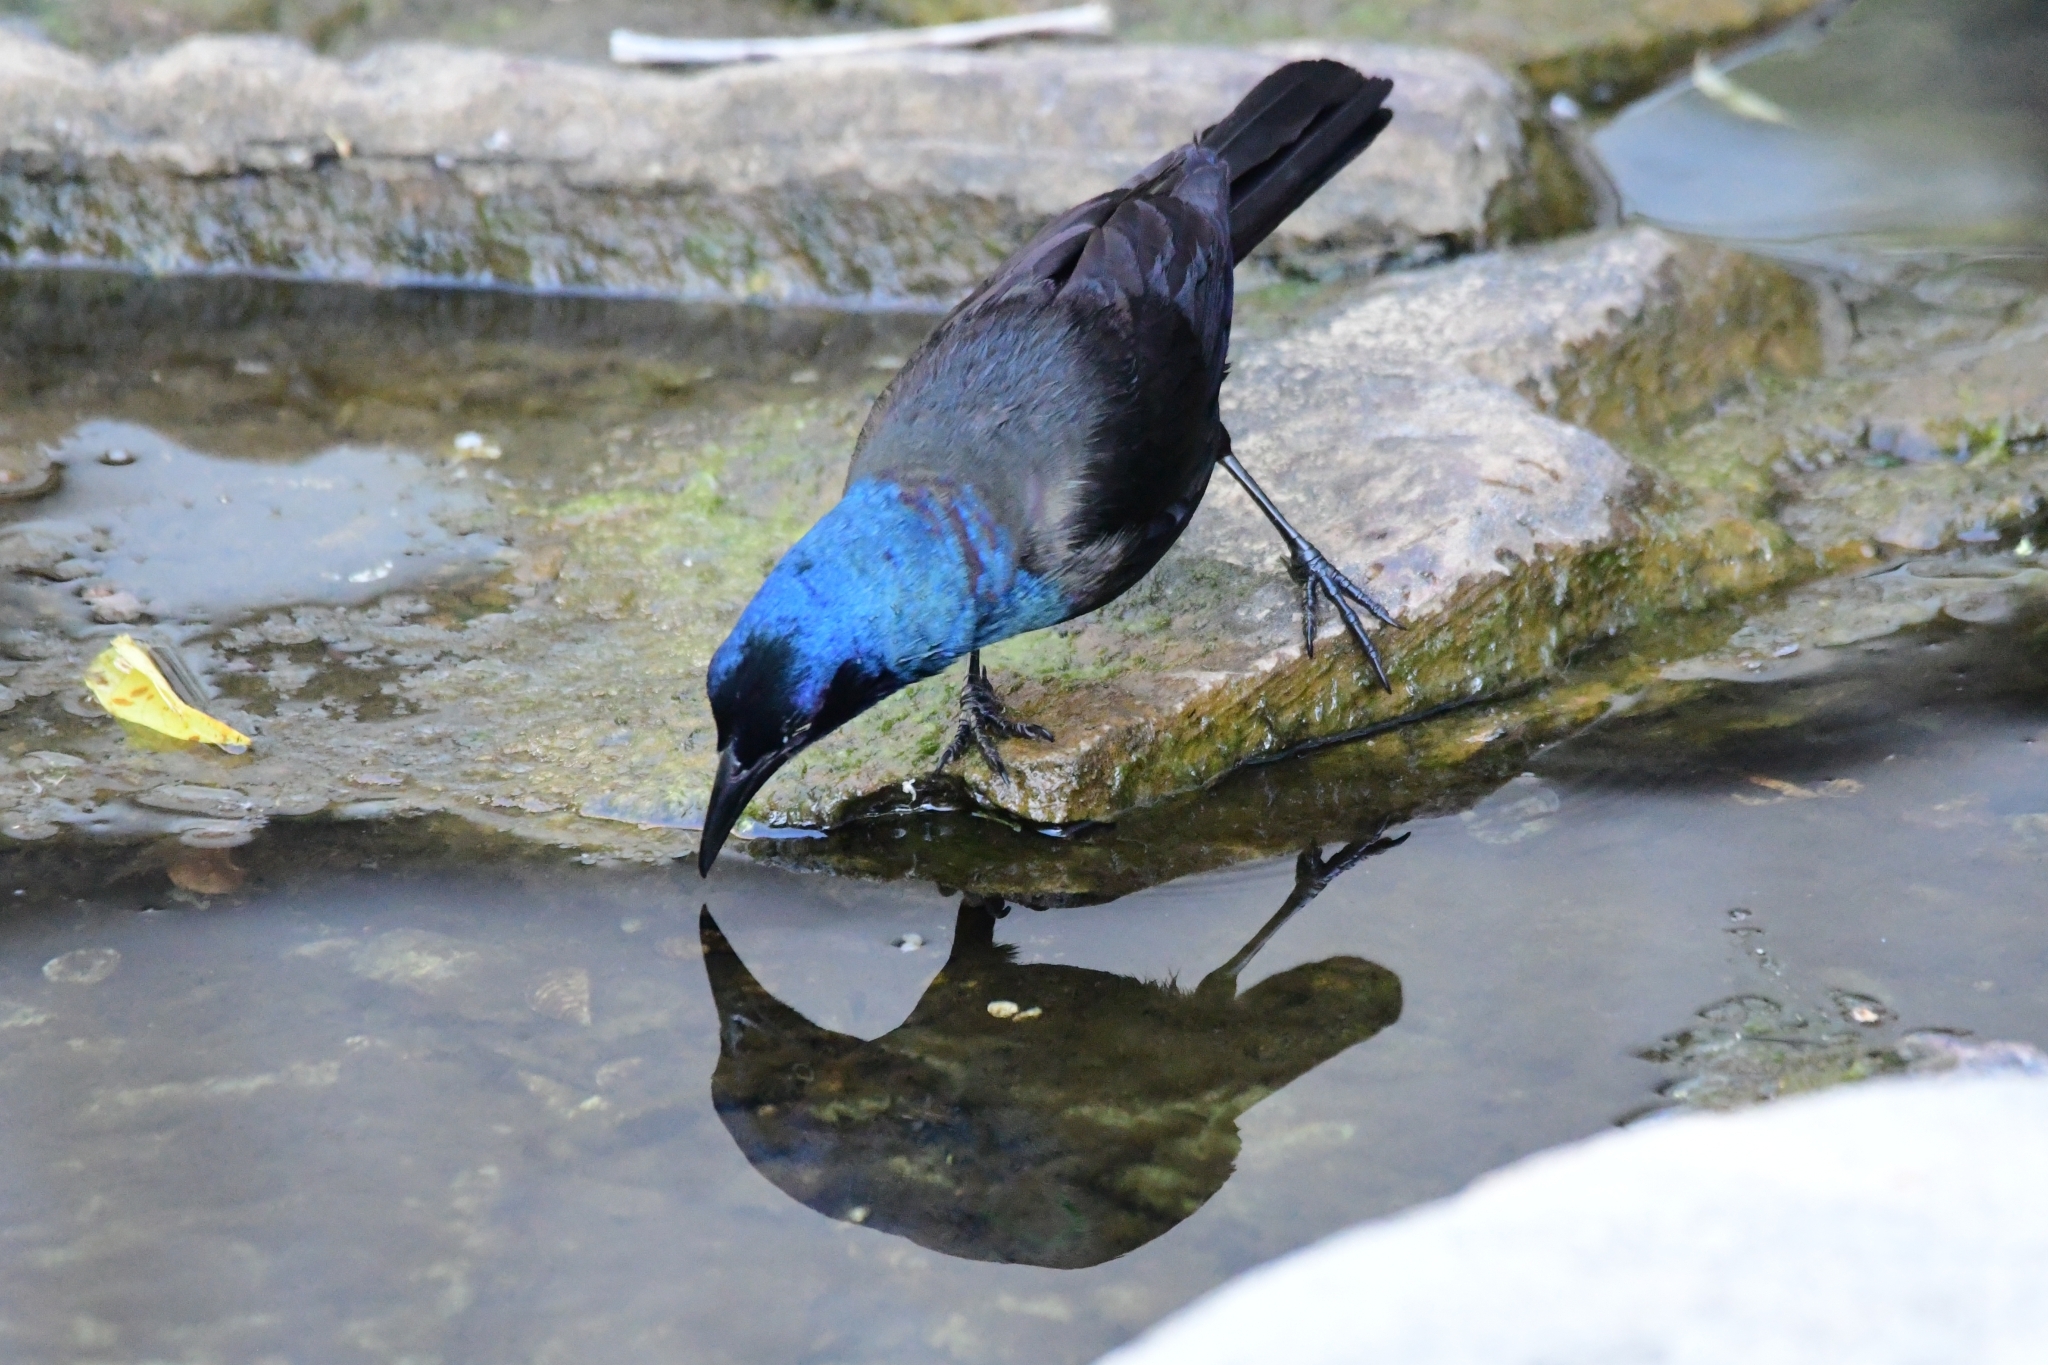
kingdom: Animalia
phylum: Chordata
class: Aves
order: Passeriformes
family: Icteridae
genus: Quiscalus
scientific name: Quiscalus quiscula
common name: Common grackle
